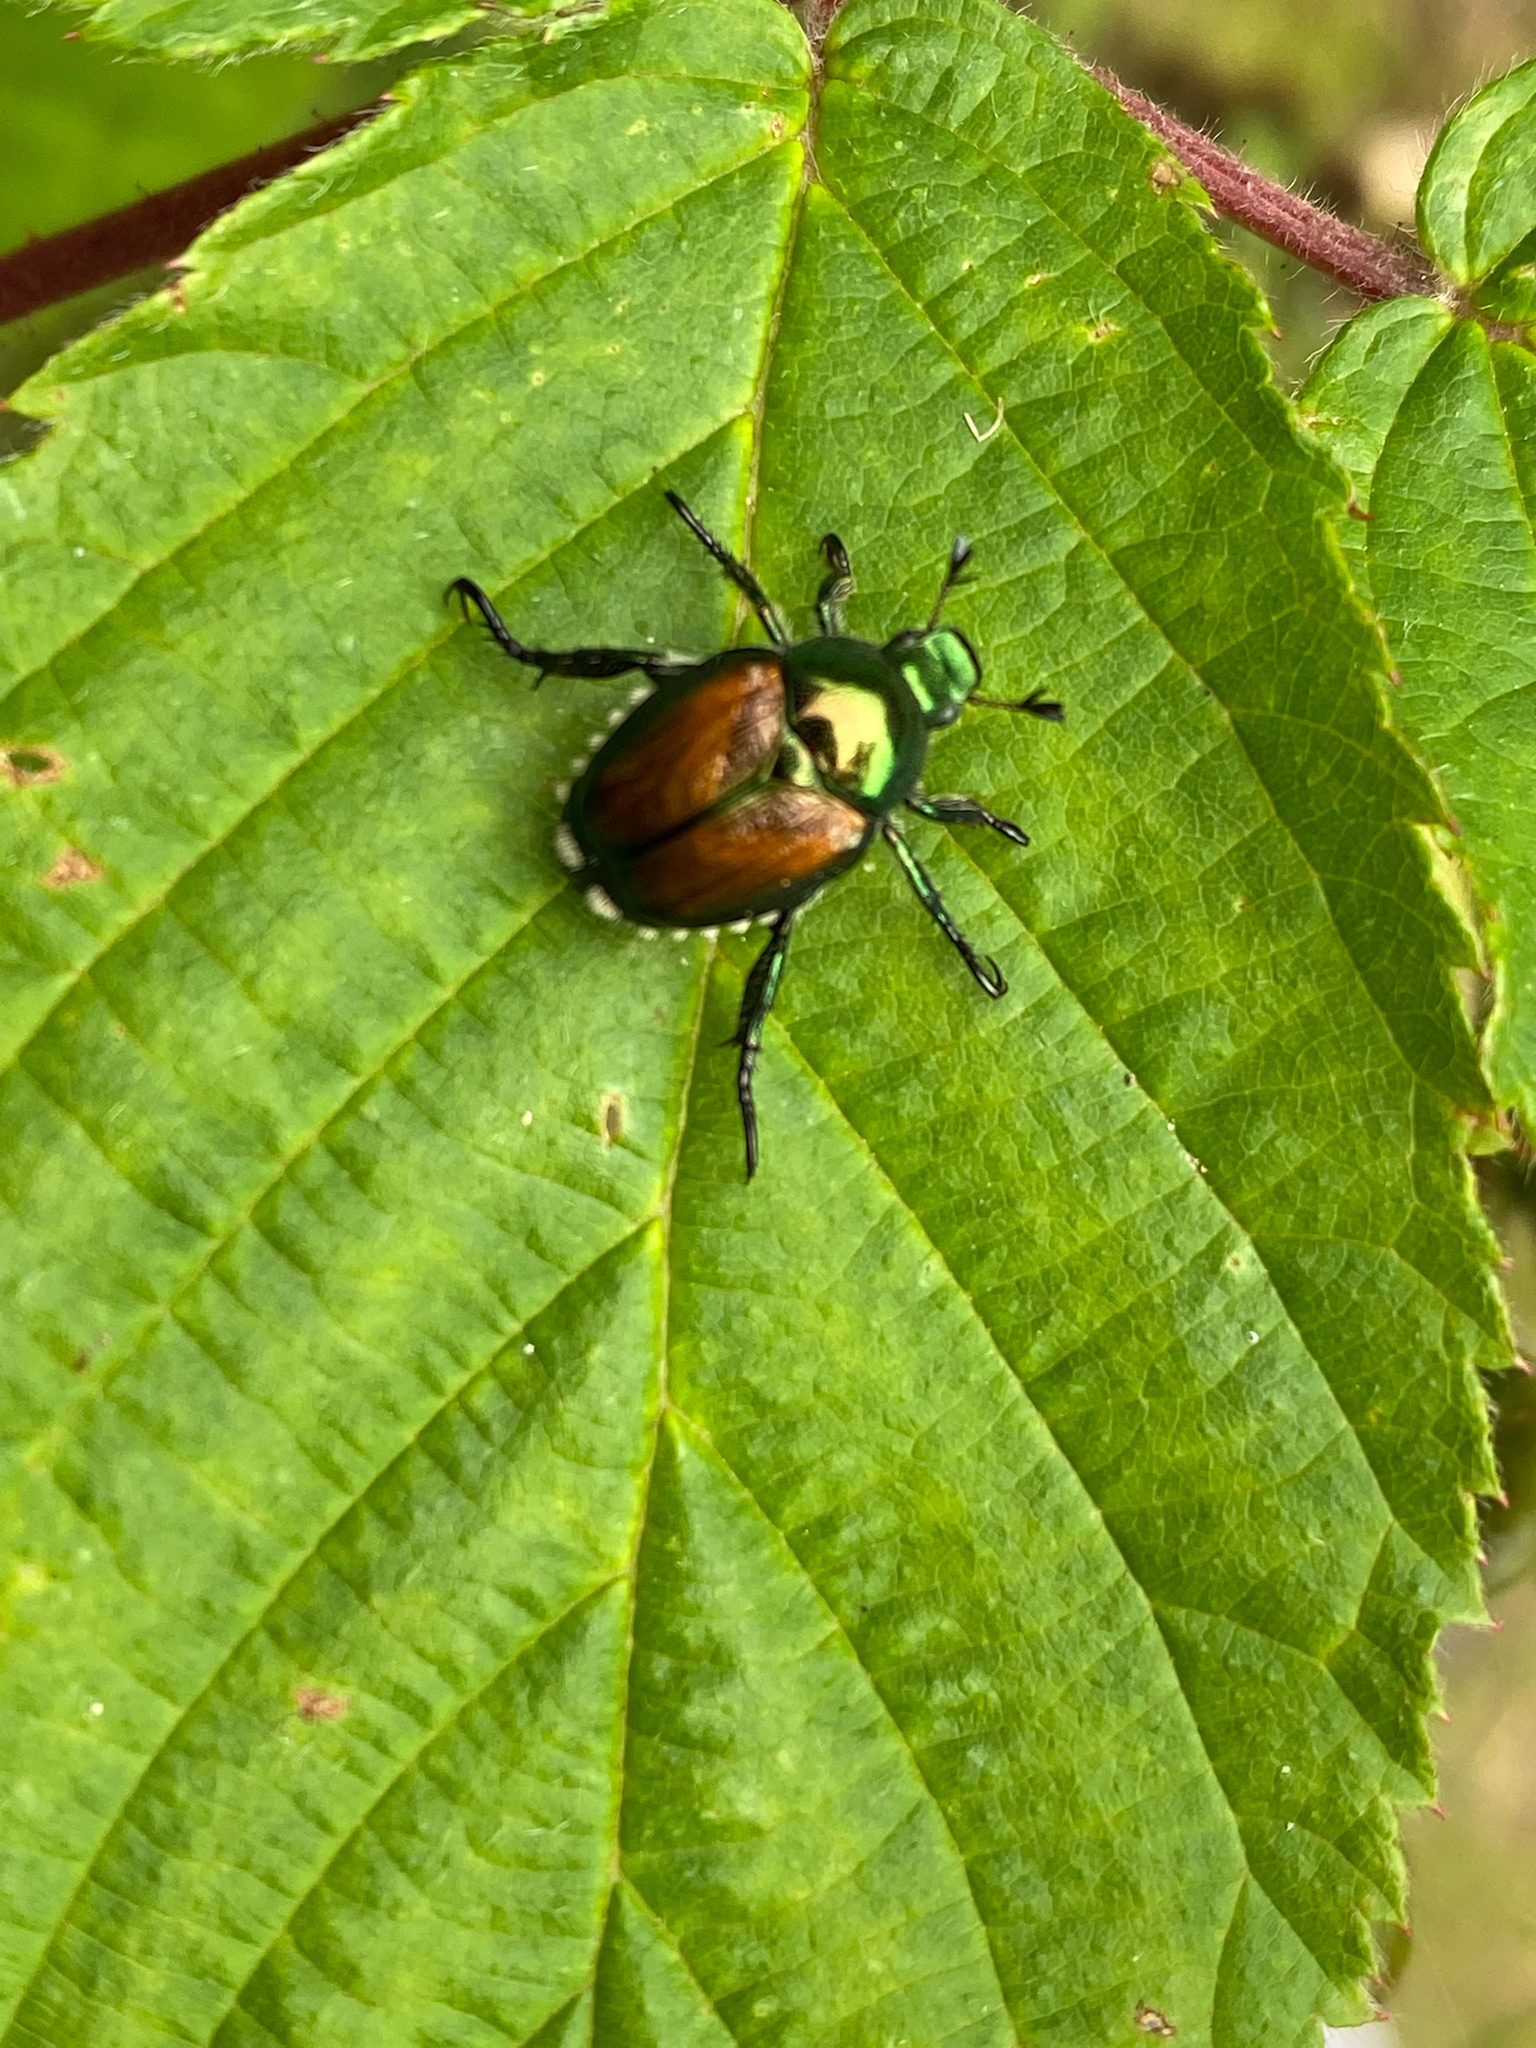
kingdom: Animalia
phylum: Arthropoda
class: Insecta
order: Coleoptera
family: Scarabaeidae
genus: Popillia
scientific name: Popillia japonica
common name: Japanese beetle
